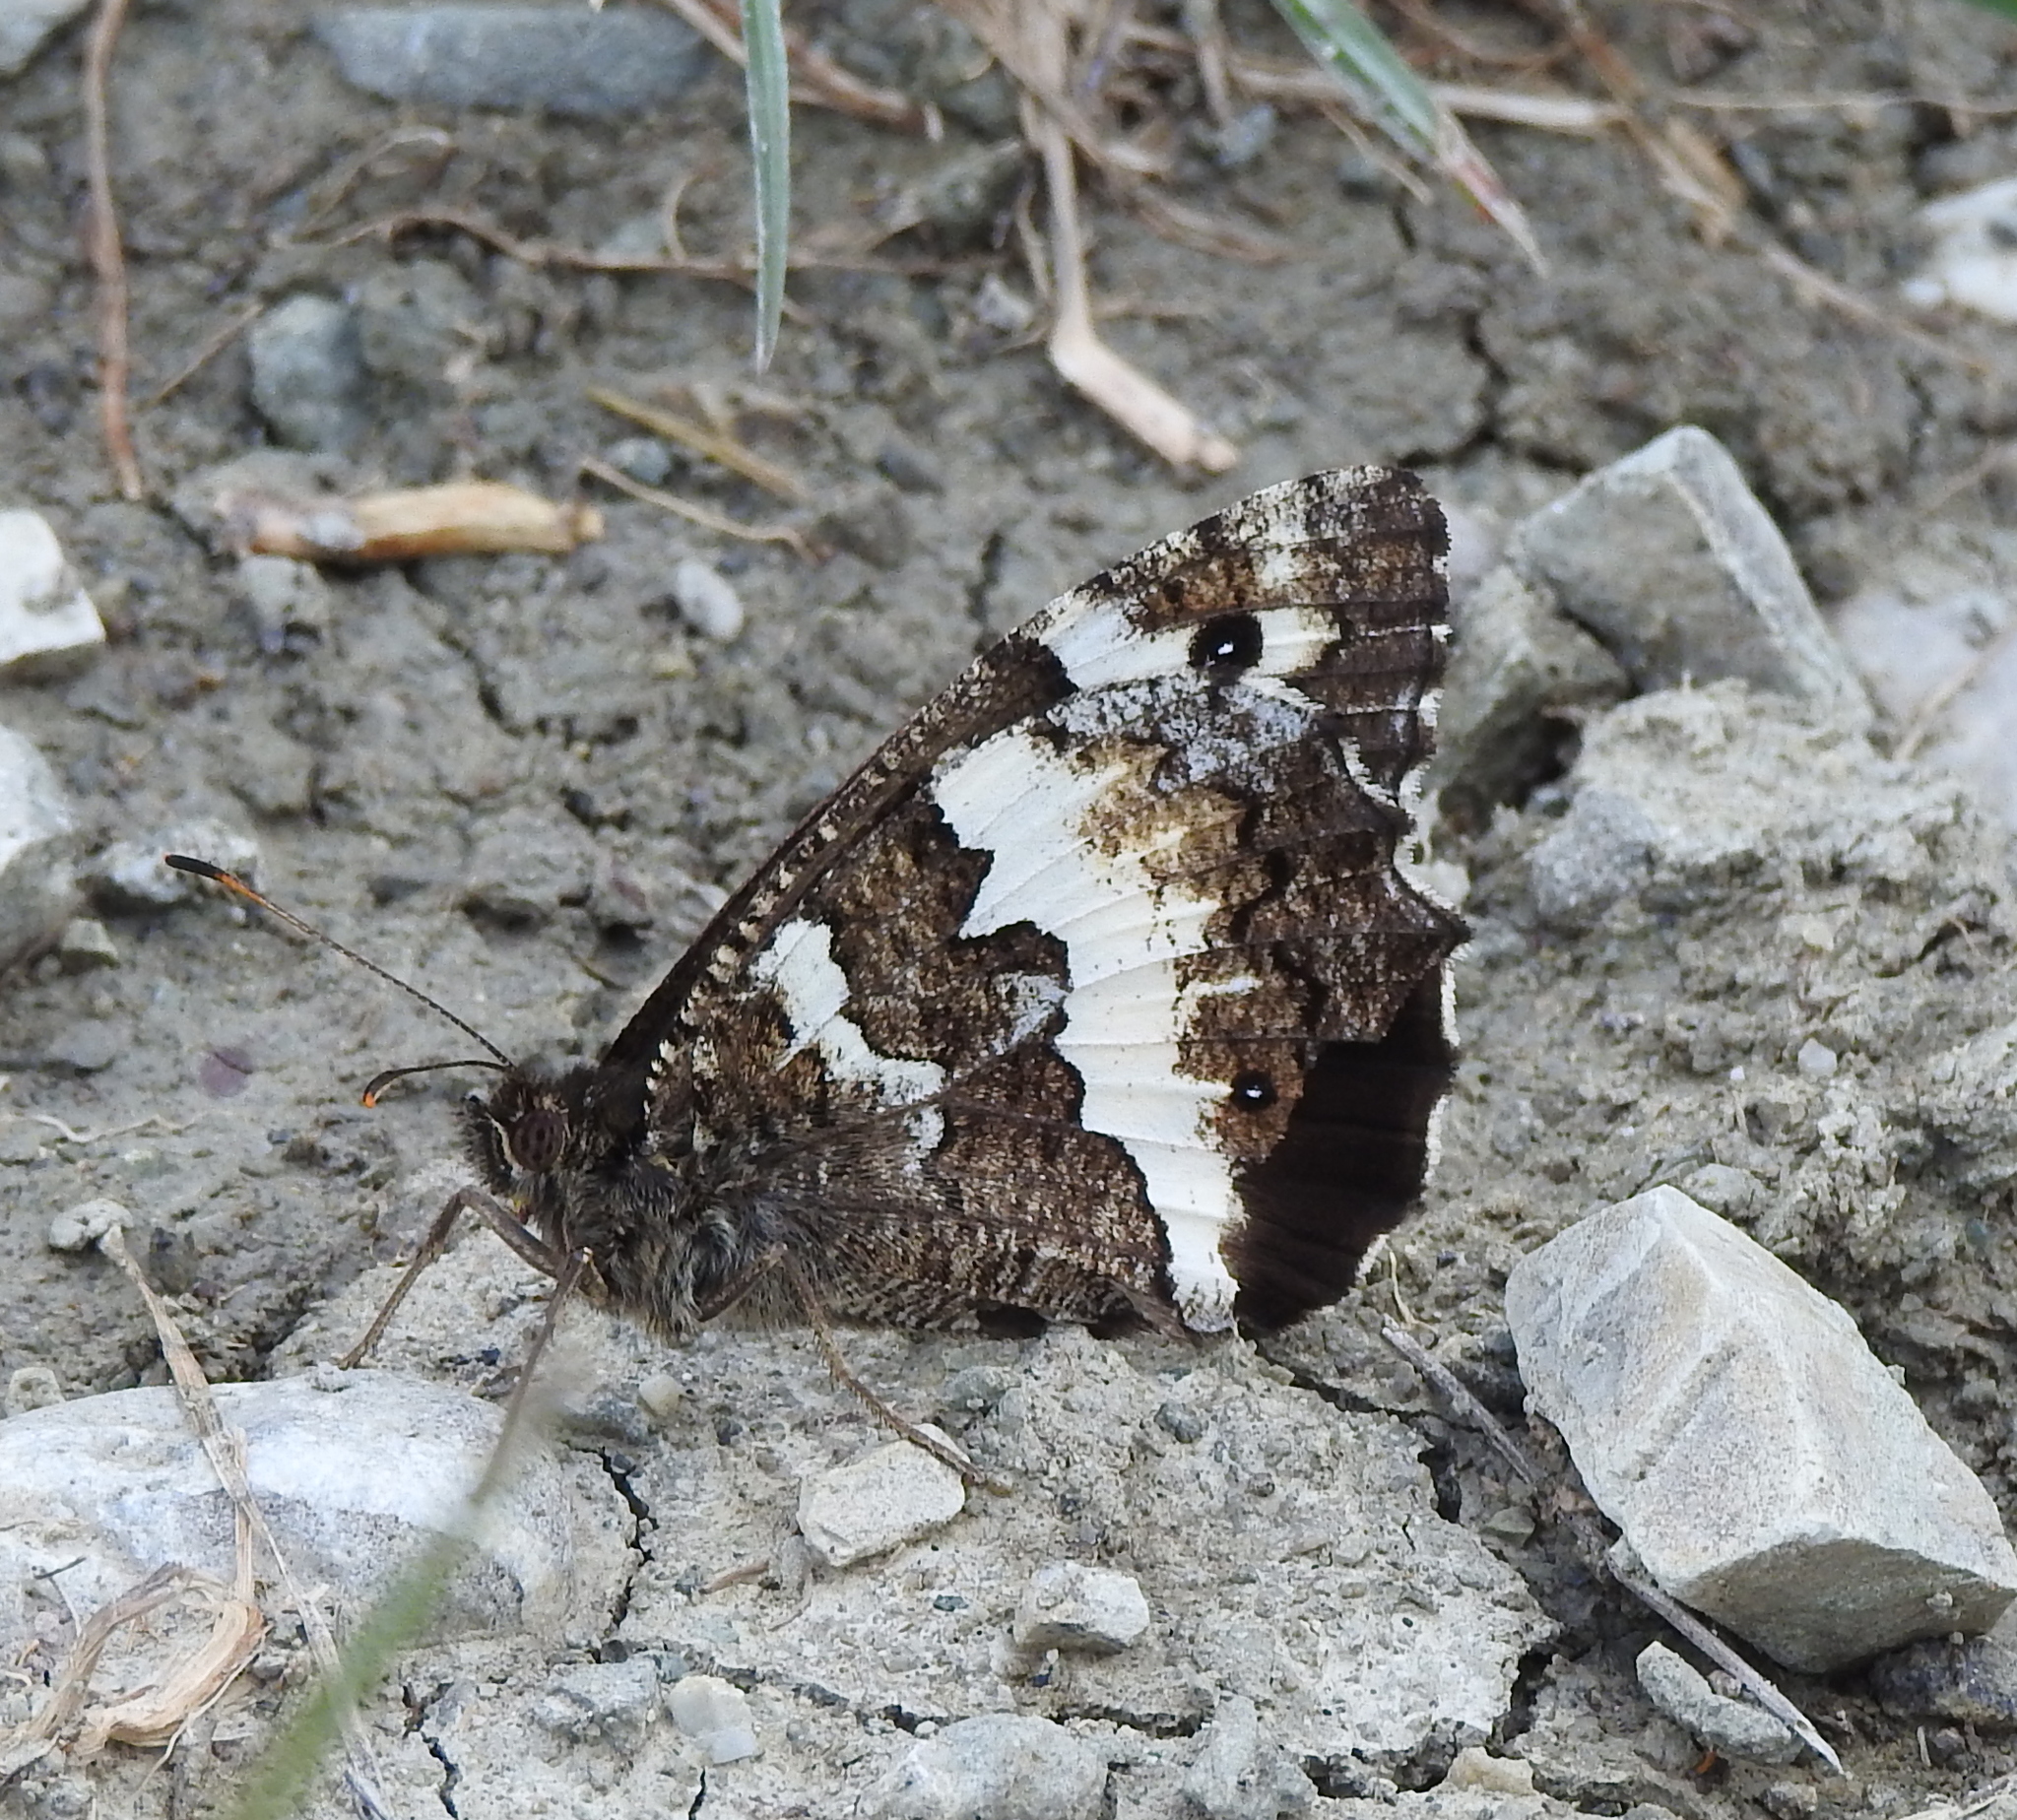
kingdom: Animalia
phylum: Arthropoda
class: Insecta
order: Lepidoptera
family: Lycaenidae
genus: Loweia
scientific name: Loweia tityrus
